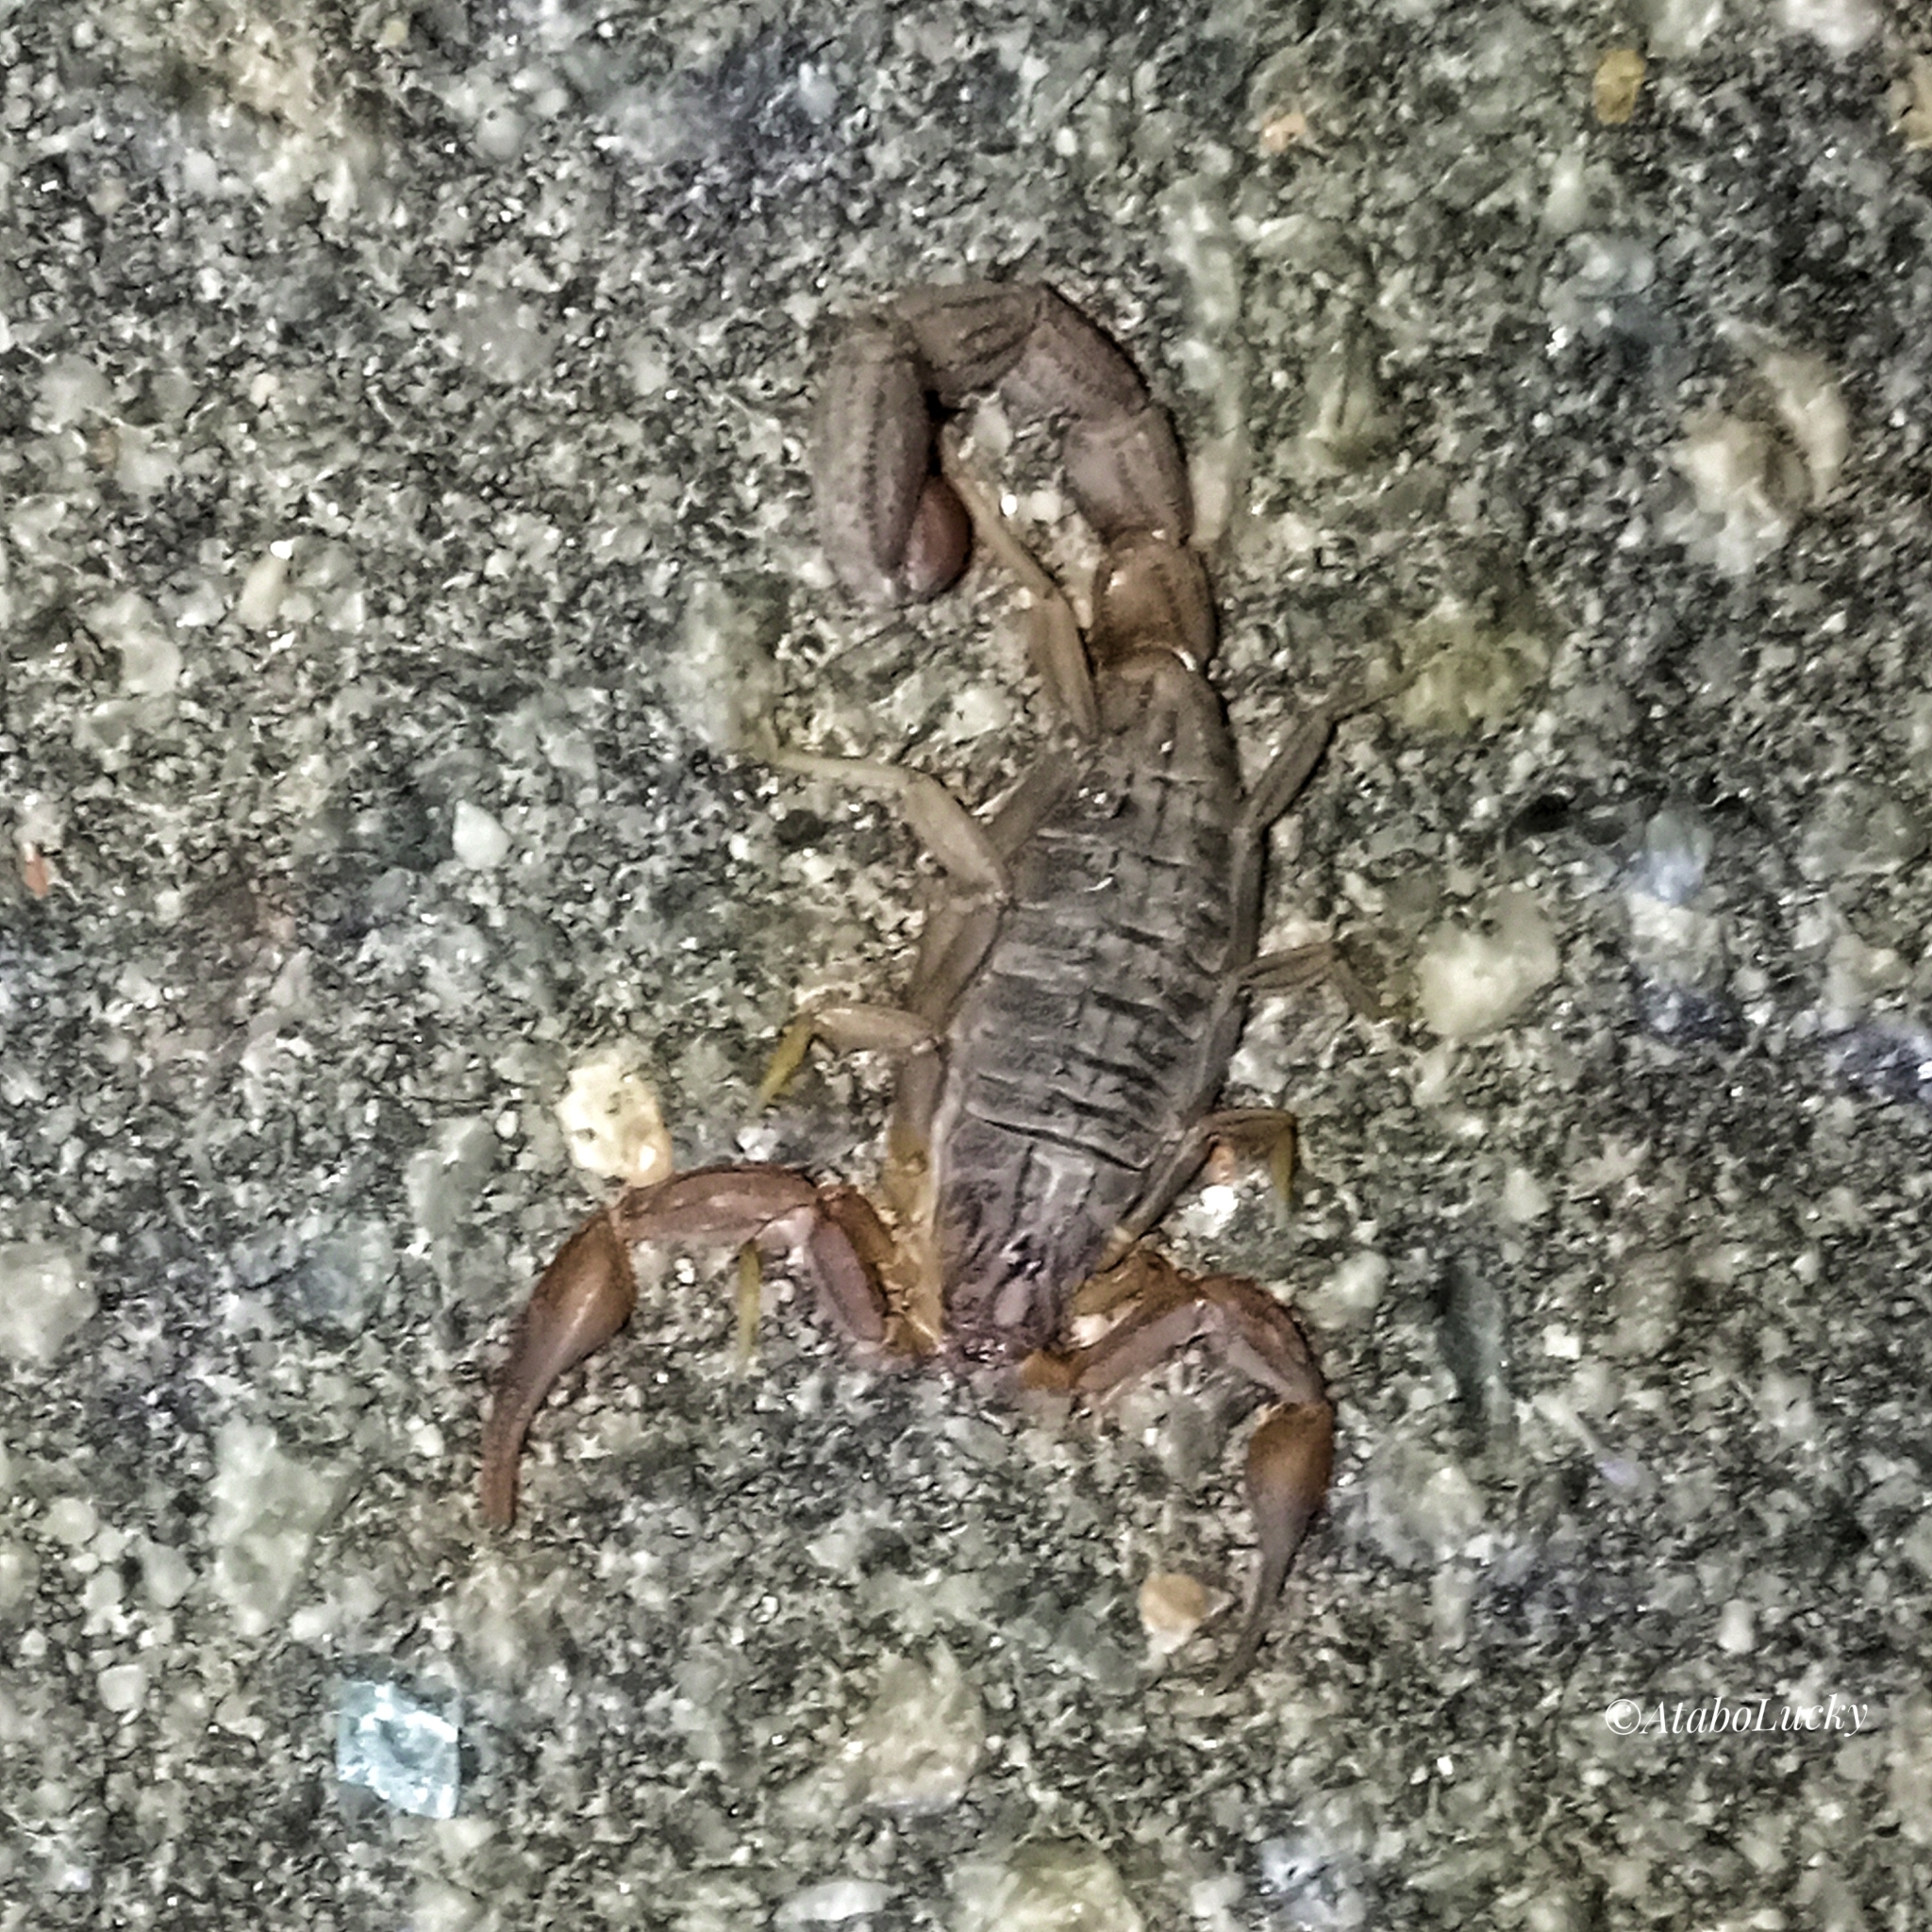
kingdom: Animalia
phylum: Arthropoda
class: Arachnida
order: Scorpiones
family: Buthidae
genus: Hottentotta
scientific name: Hottentotta hottentotta
